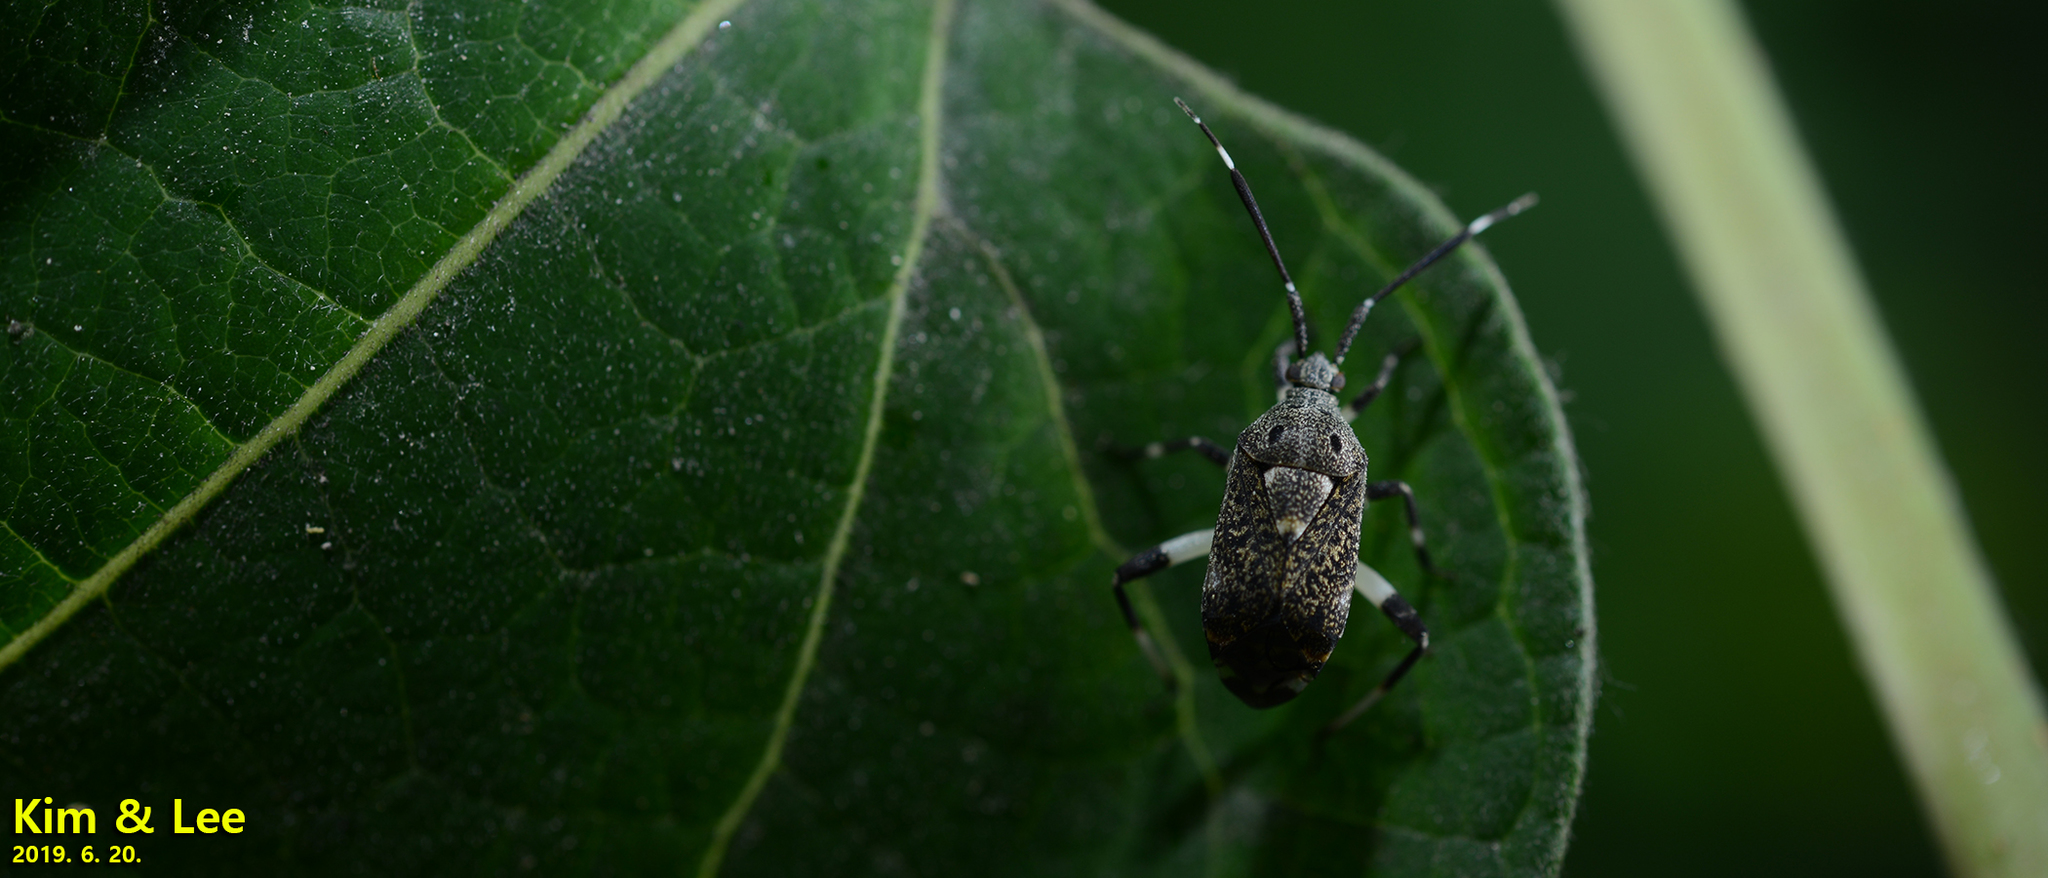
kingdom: Animalia
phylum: Arthropoda
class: Insecta
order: Hemiptera
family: Miridae
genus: Eurystylus
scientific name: Eurystylus coelestialium
